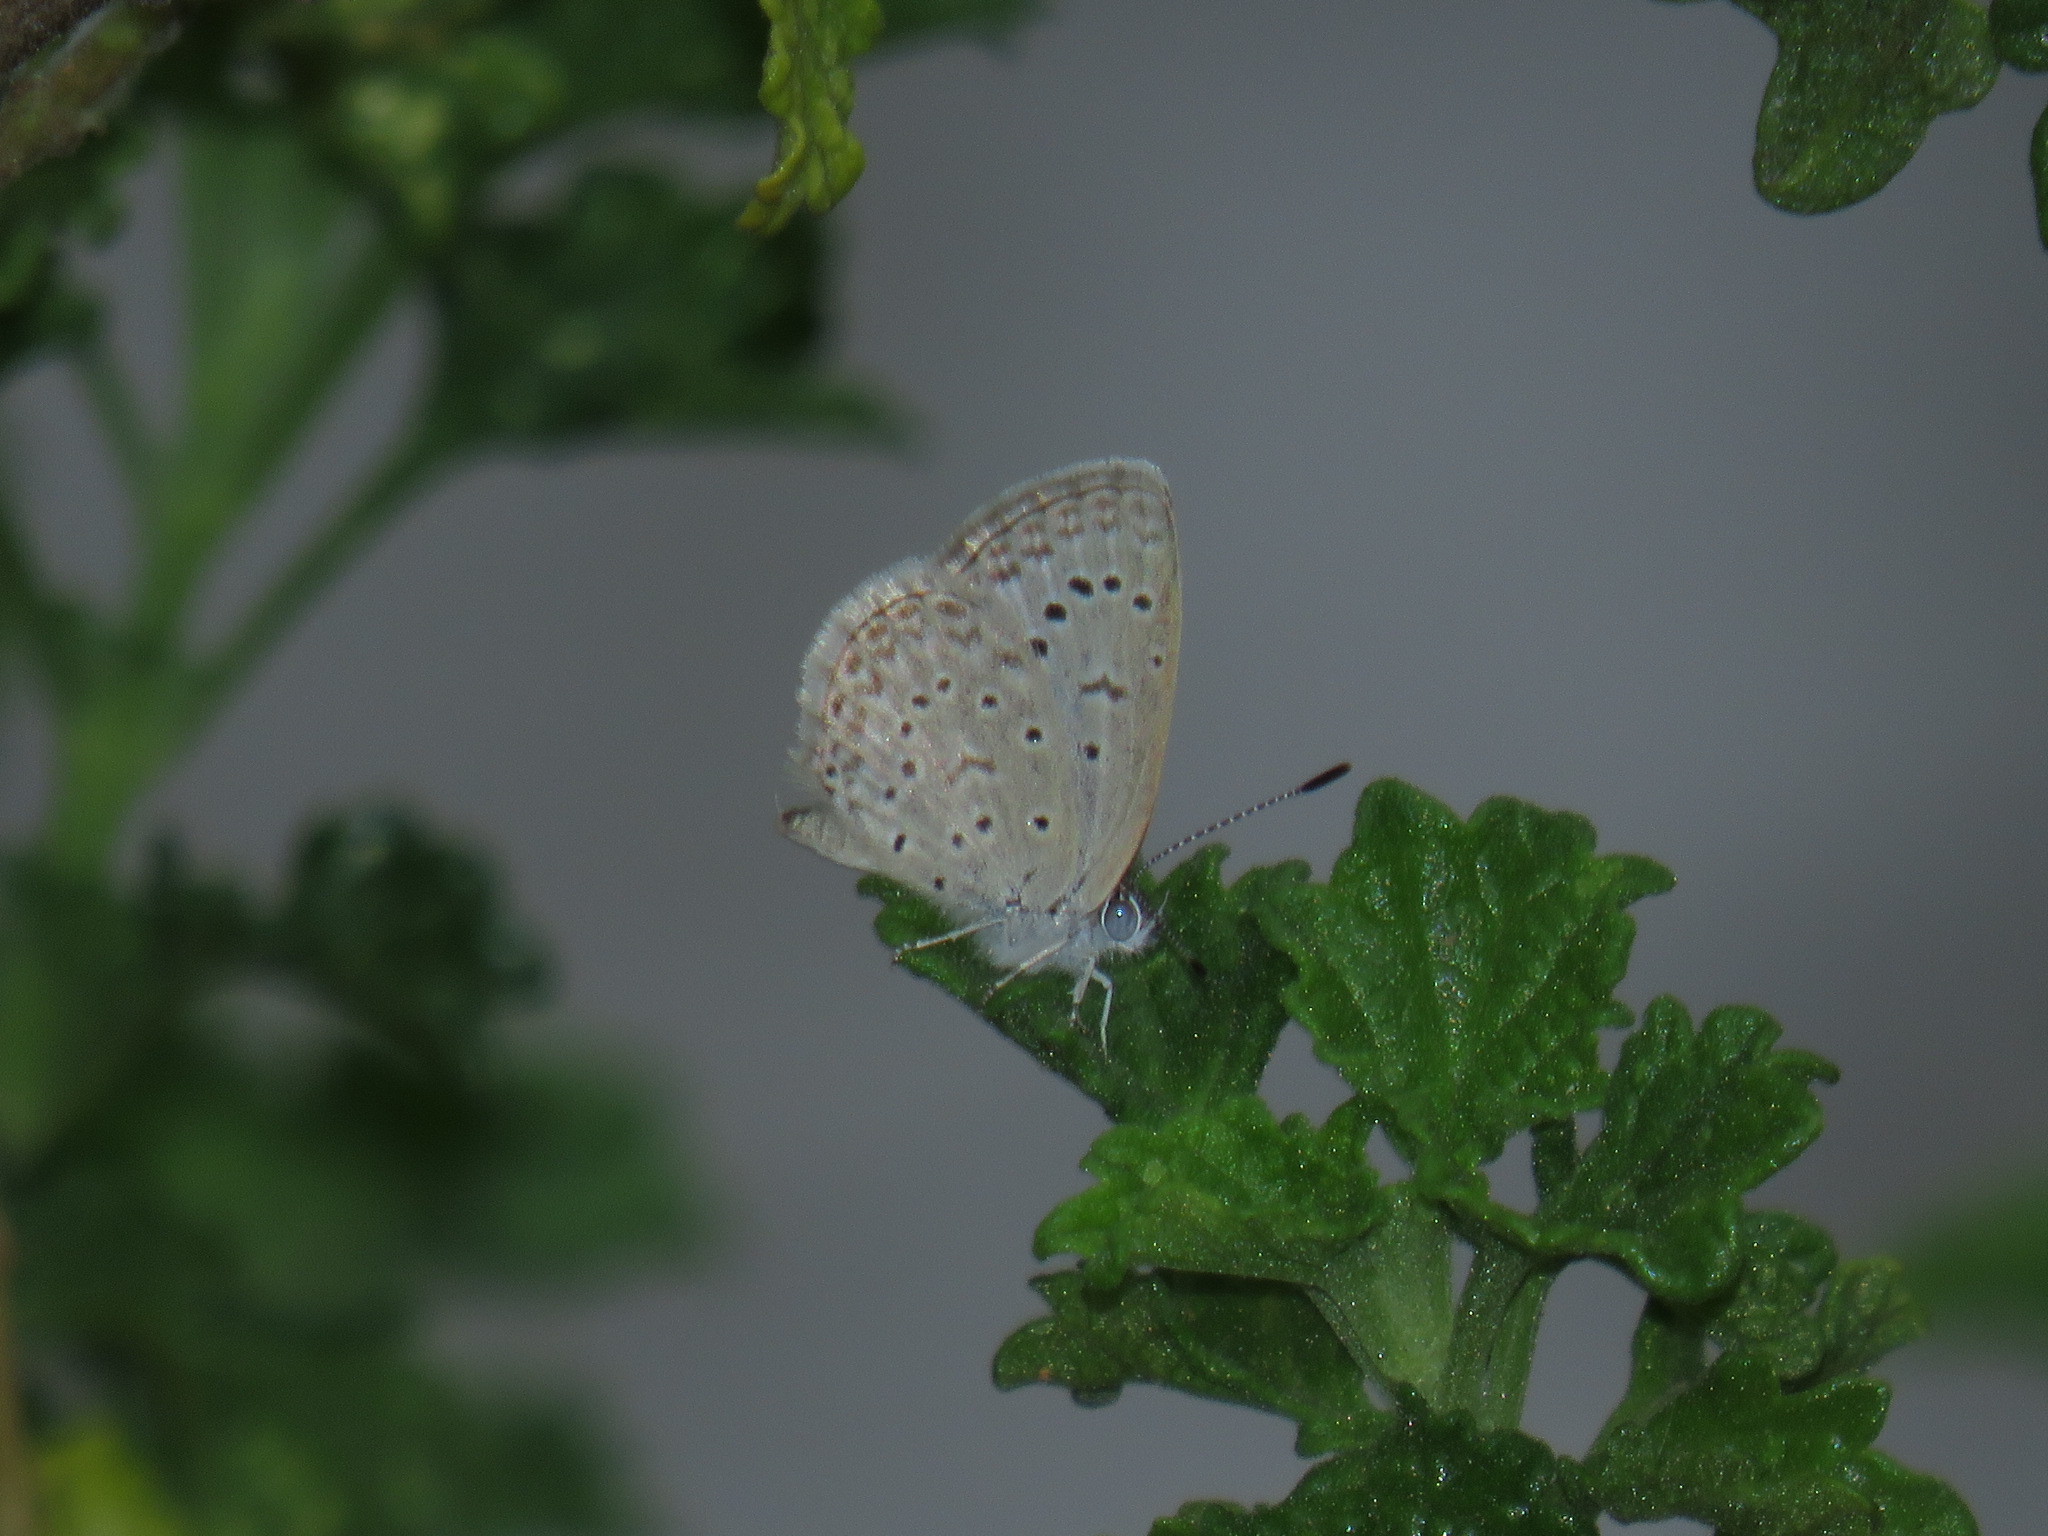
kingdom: Animalia
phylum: Arthropoda
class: Insecta
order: Lepidoptera
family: Lycaenidae
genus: Zizeeria
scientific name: Zizeeria knysna
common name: African grass blue
